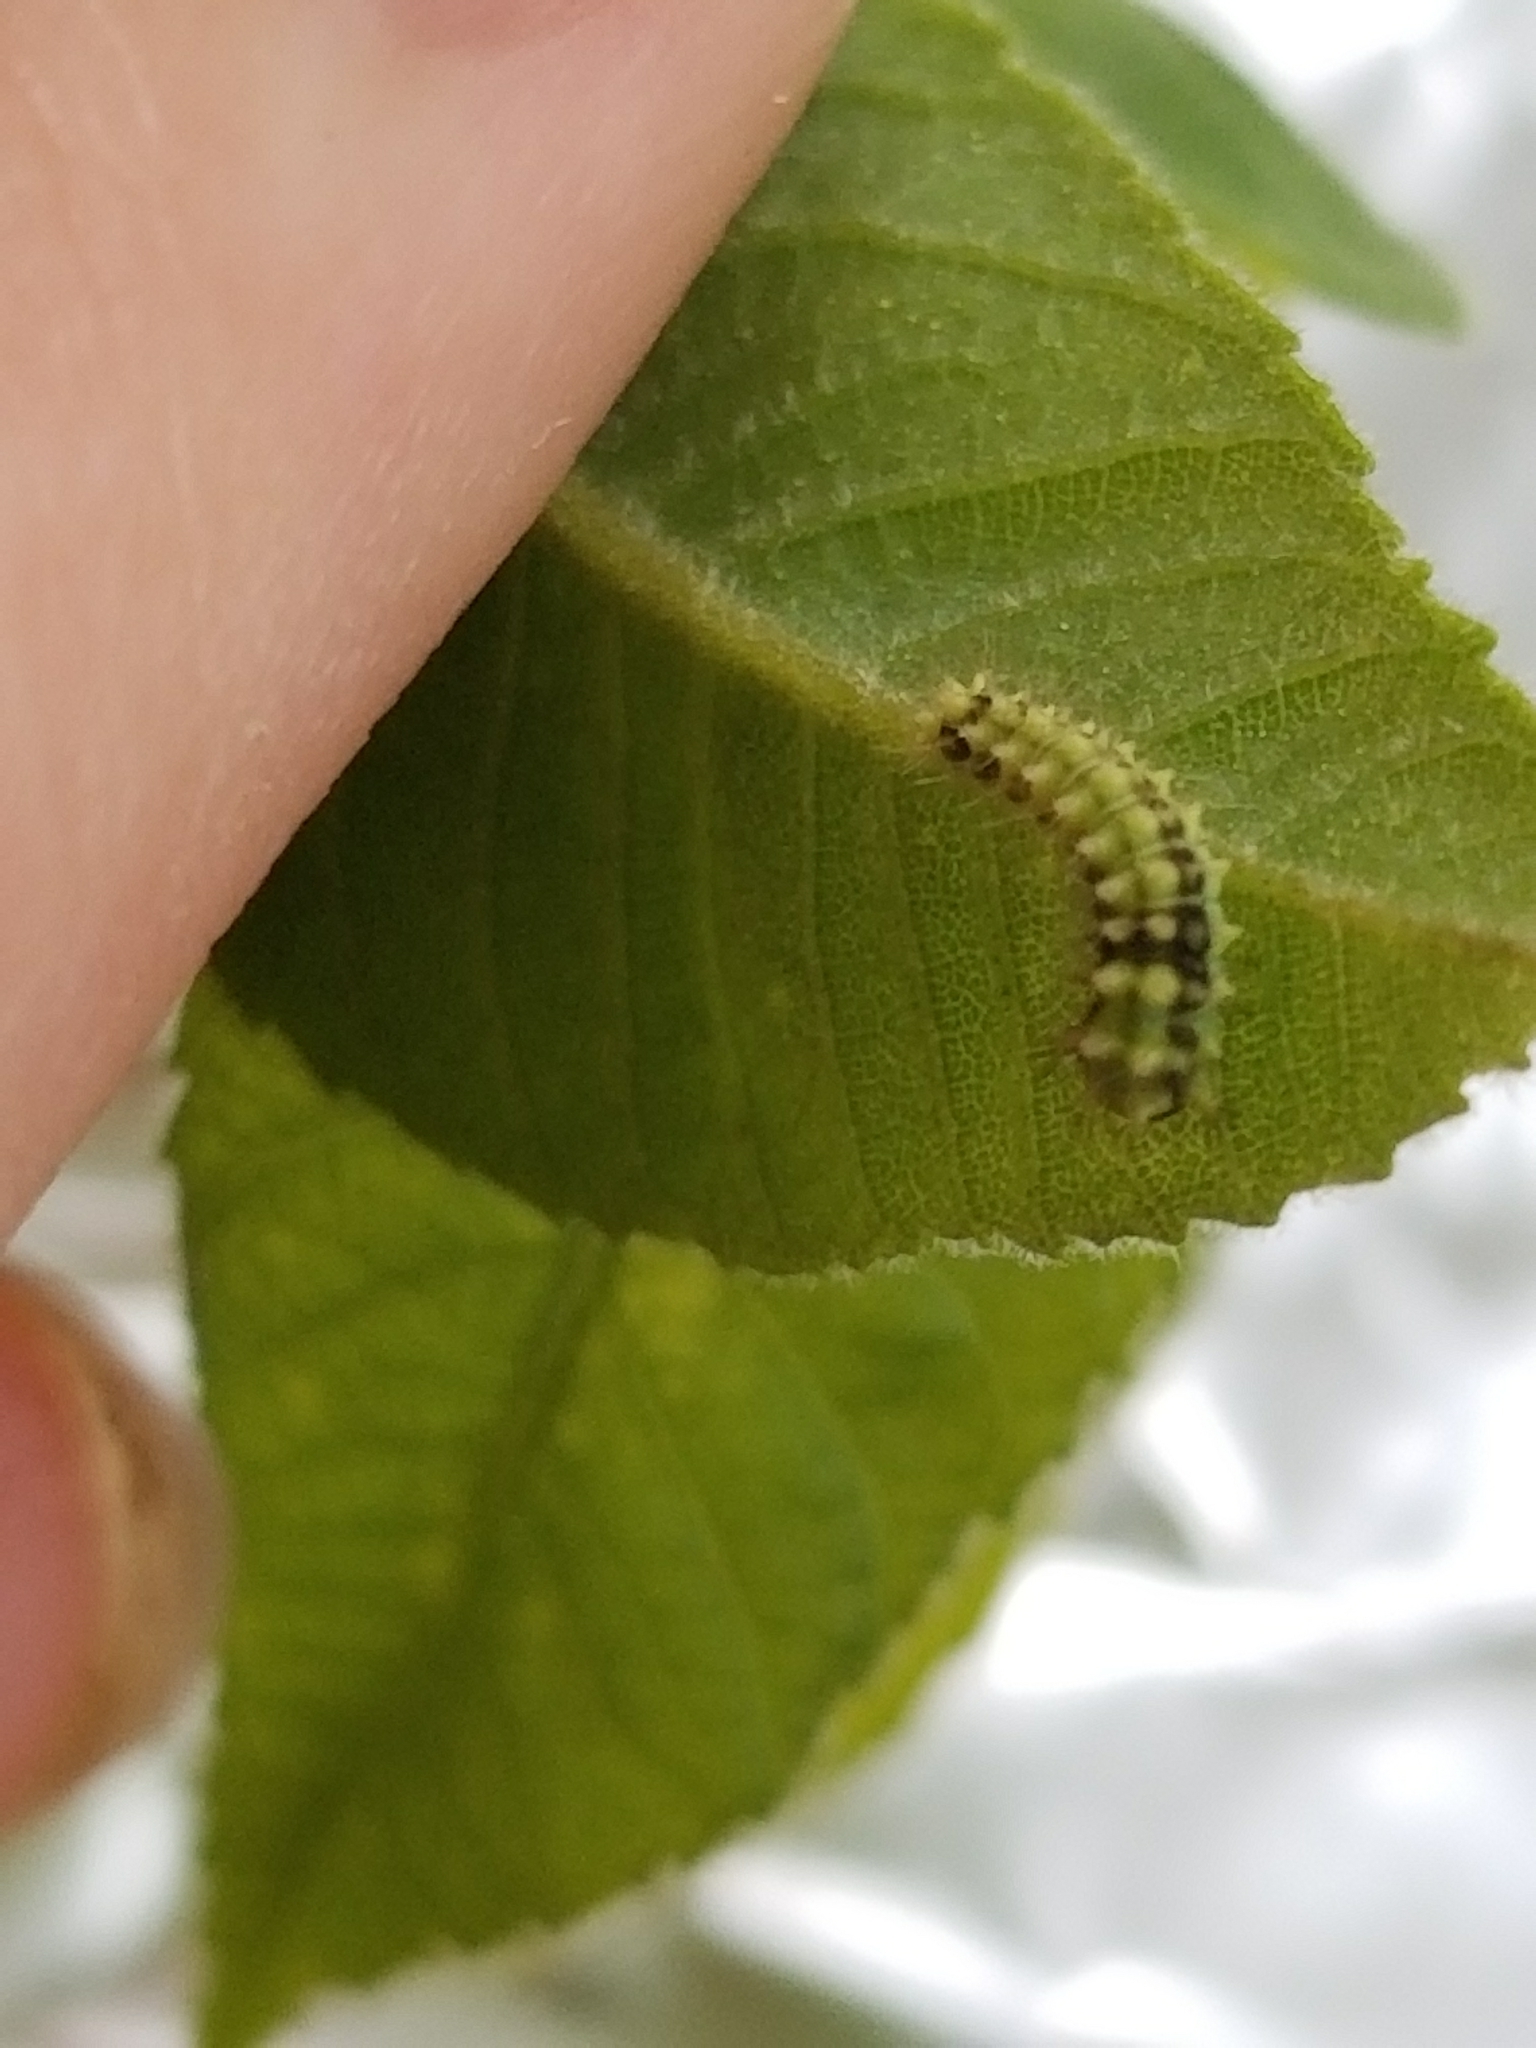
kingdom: Animalia
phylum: Arthropoda
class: Insecta
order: Lepidoptera
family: Saturniidae
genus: Actias
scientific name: Actias luna
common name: Luna moth
